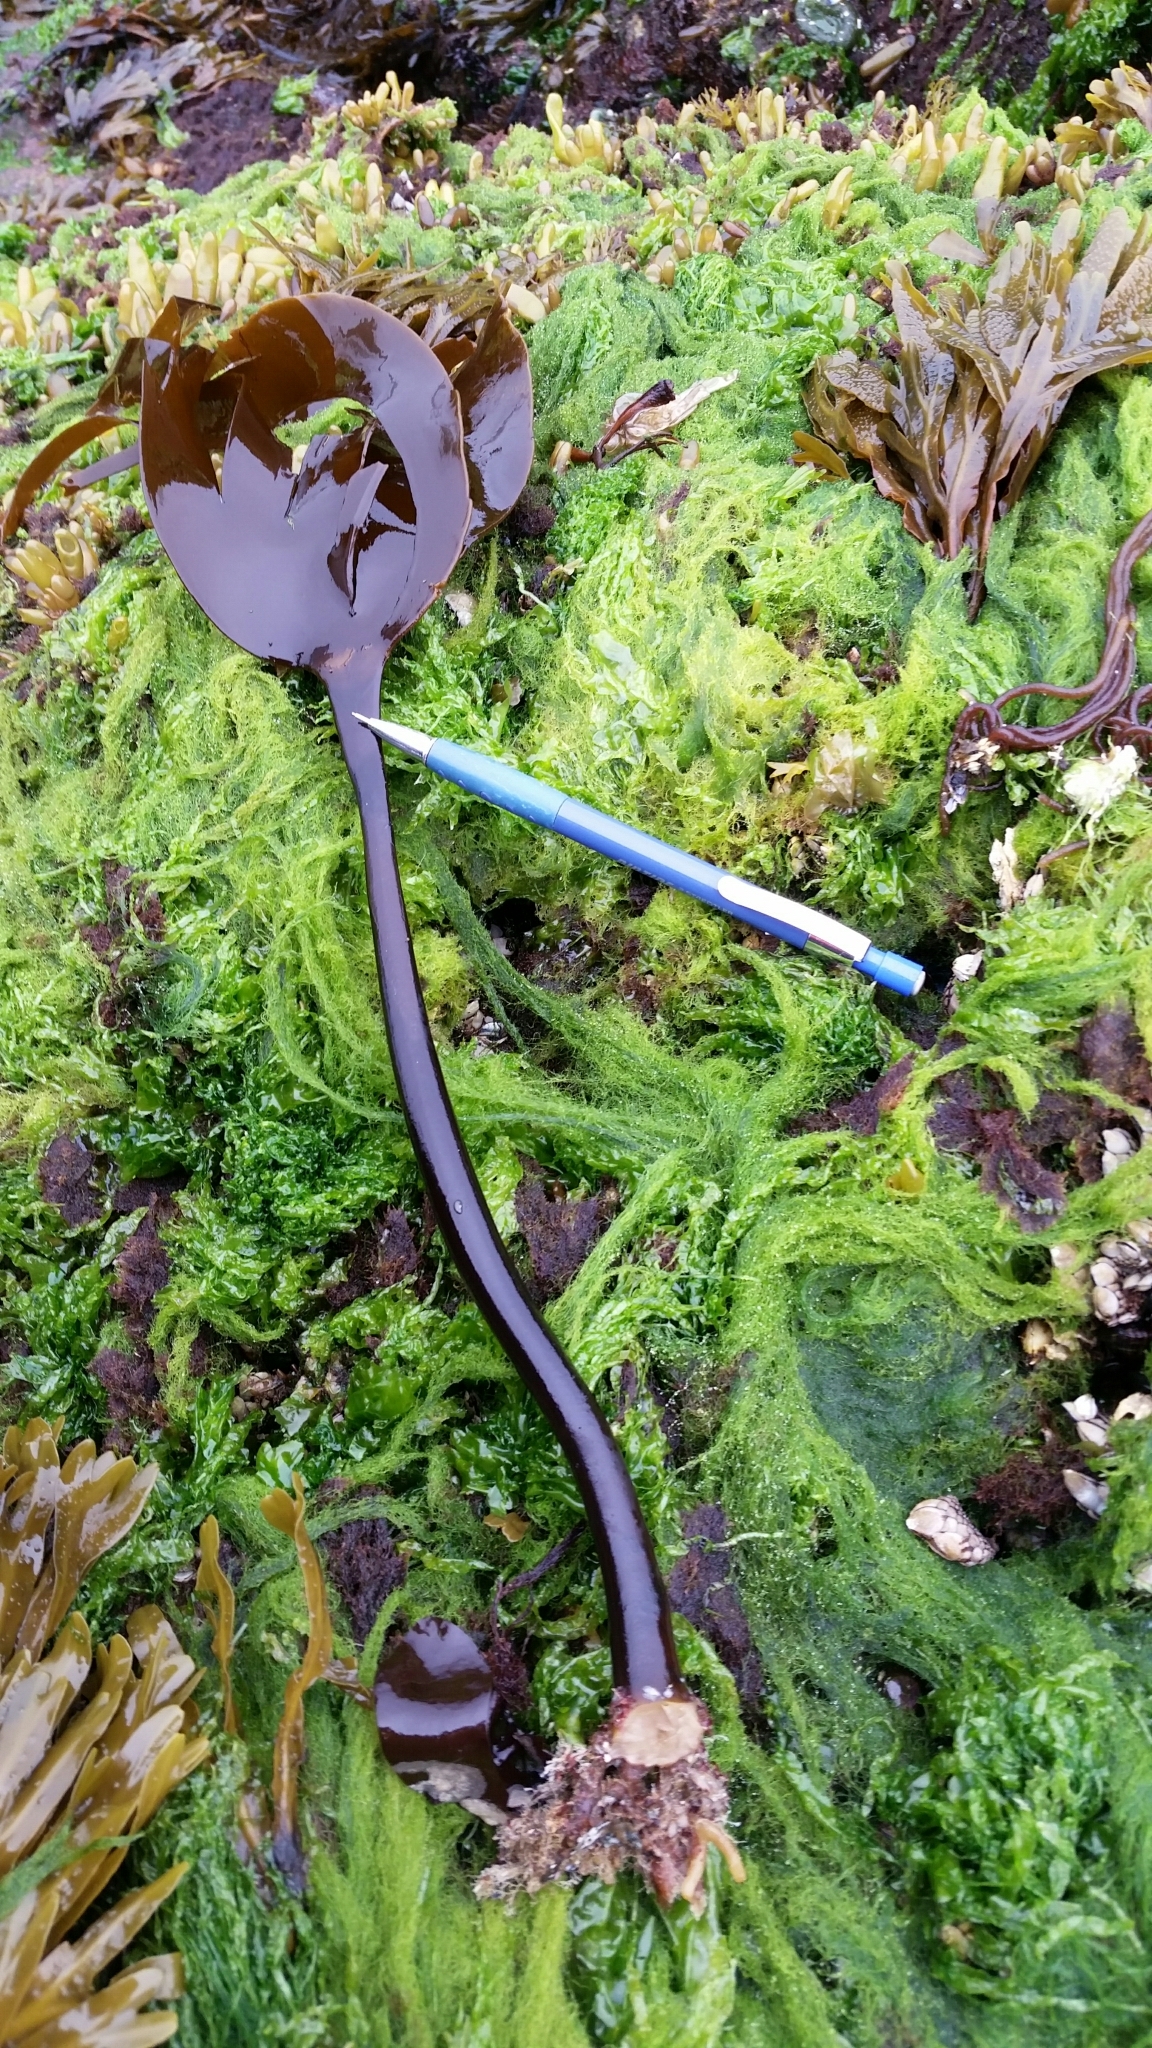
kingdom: Chromista
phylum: Ochrophyta
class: Phaeophyceae
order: Laminariales
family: Laminariaceae
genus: Laminaria
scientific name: Laminaria setchellii
